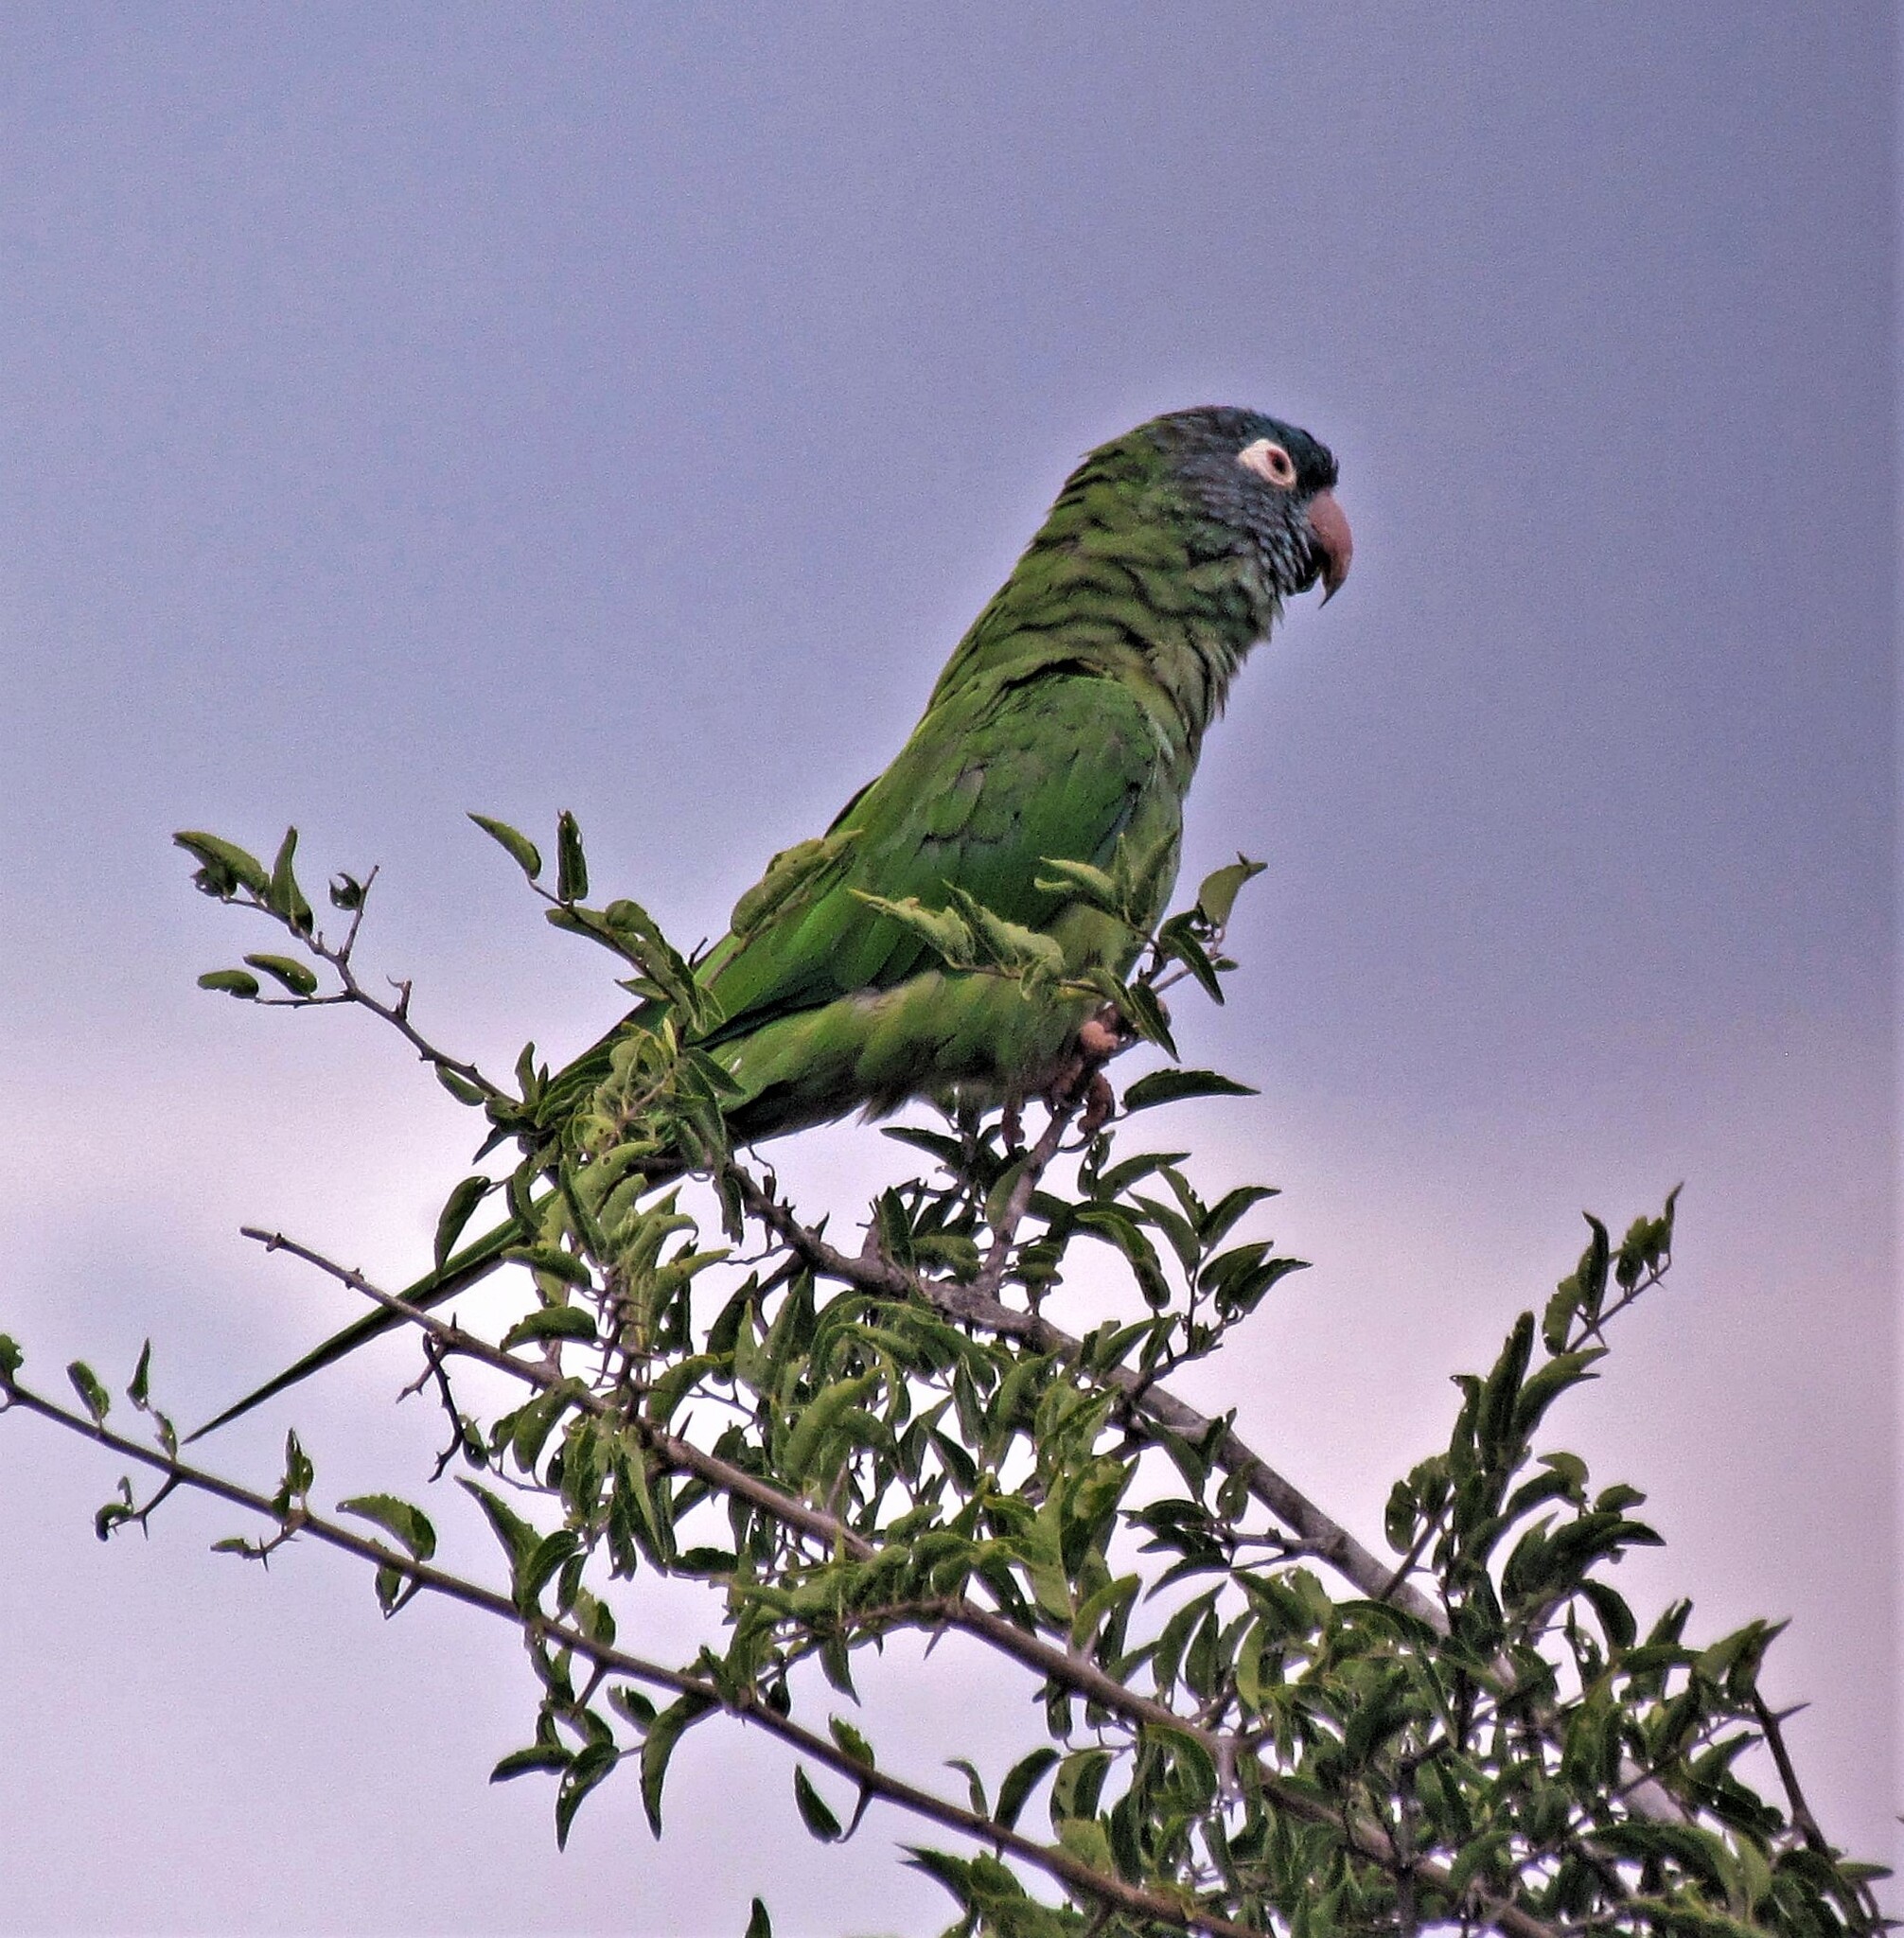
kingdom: Animalia
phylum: Chordata
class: Aves
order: Psittaciformes
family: Psittacidae
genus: Aratinga
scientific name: Aratinga acuticaudata
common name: Blue-crowned parakeet
